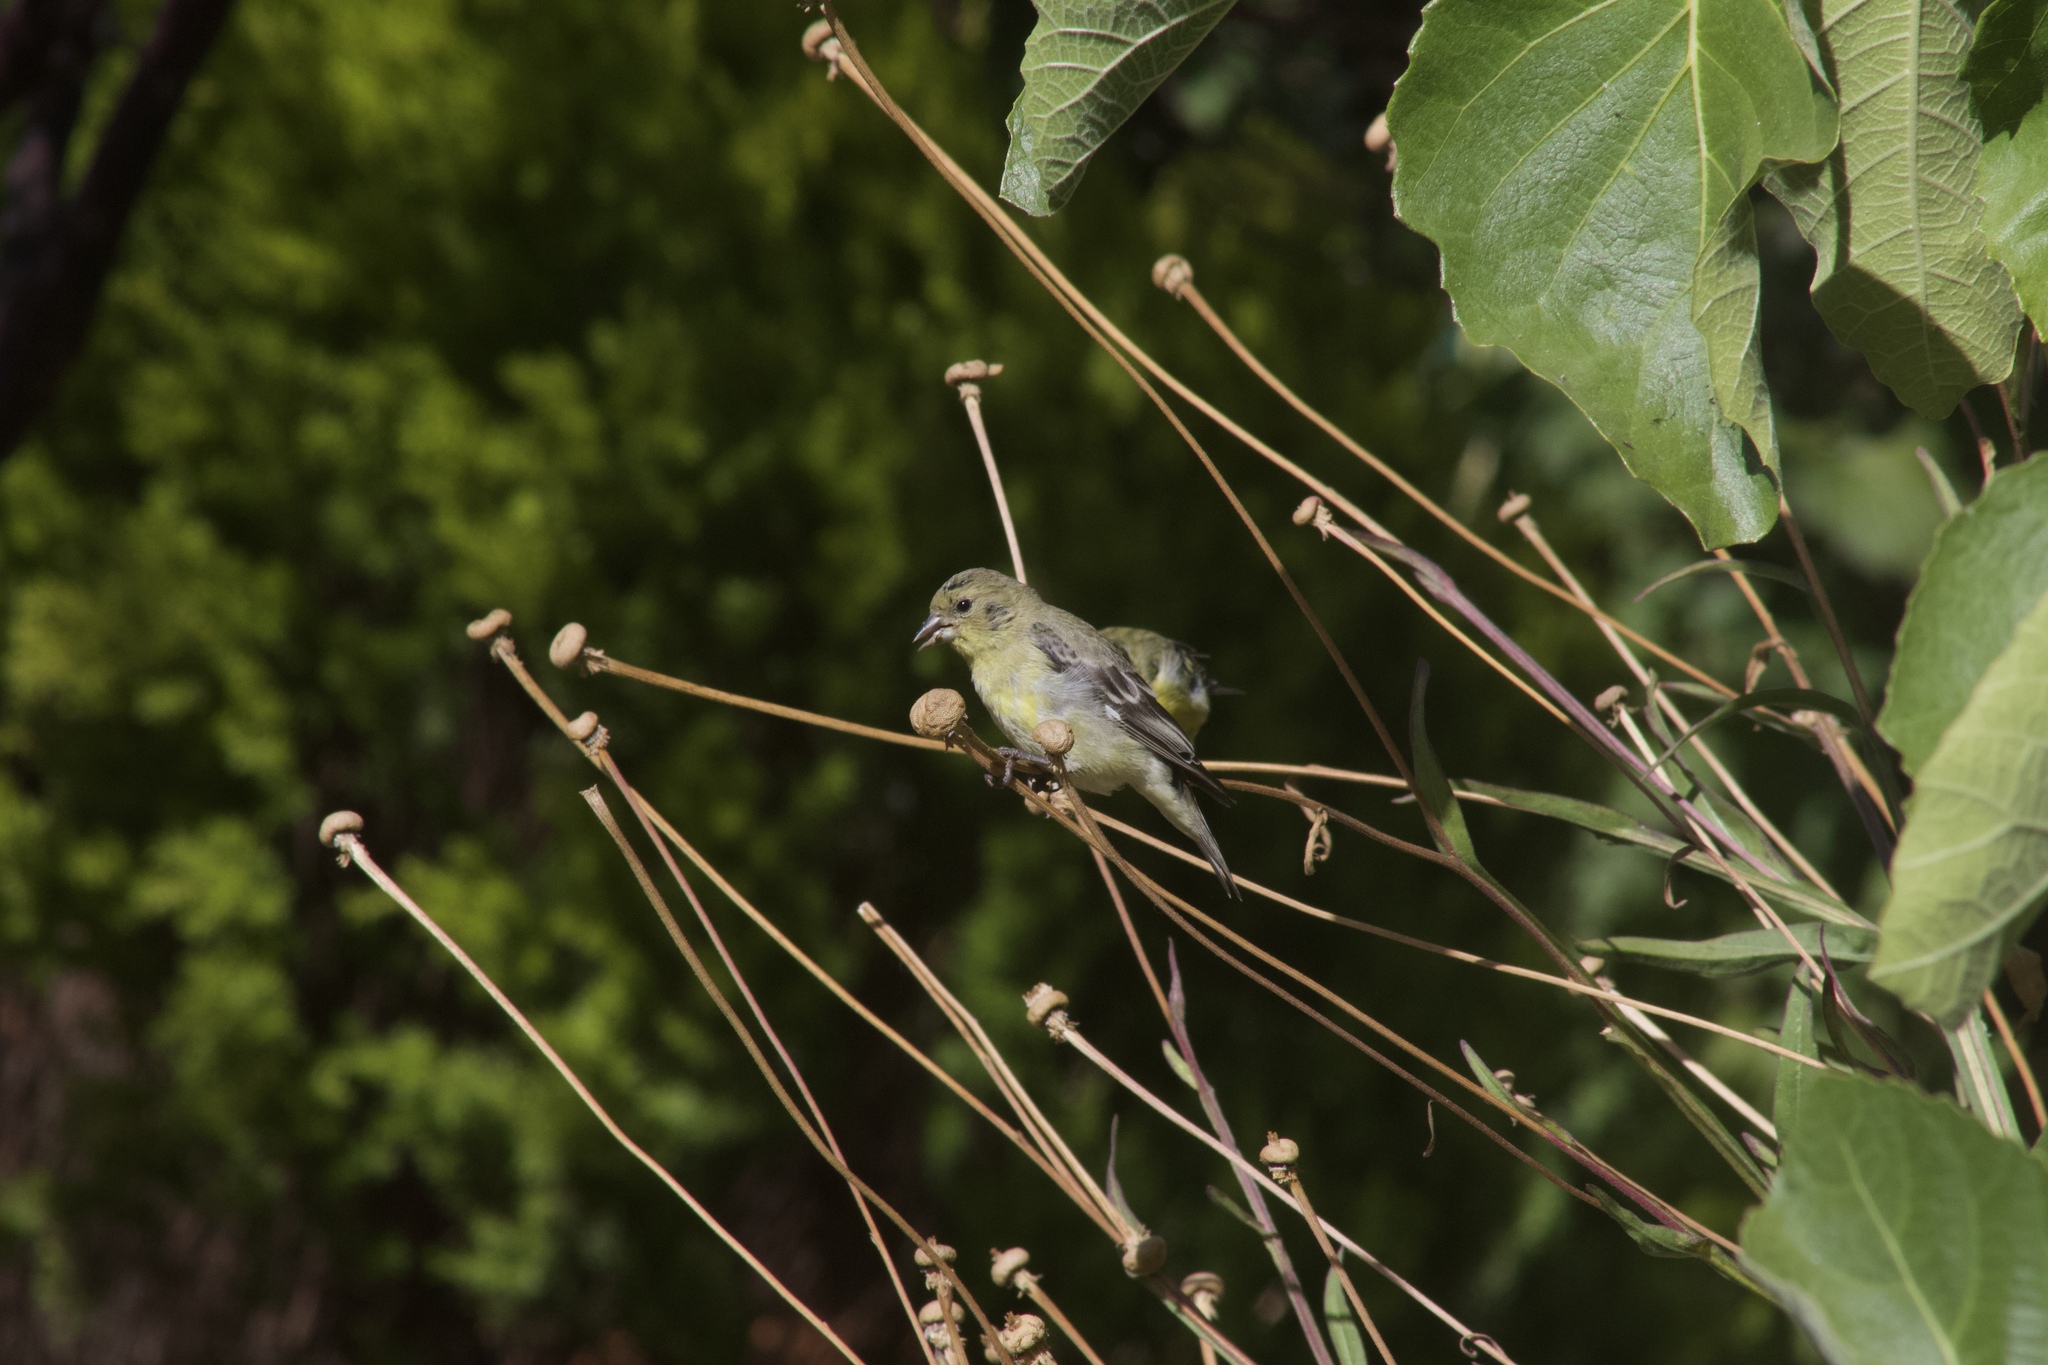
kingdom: Animalia
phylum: Chordata
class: Aves
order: Passeriformes
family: Fringillidae
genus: Spinus
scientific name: Spinus psaltria
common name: Lesser goldfinch
